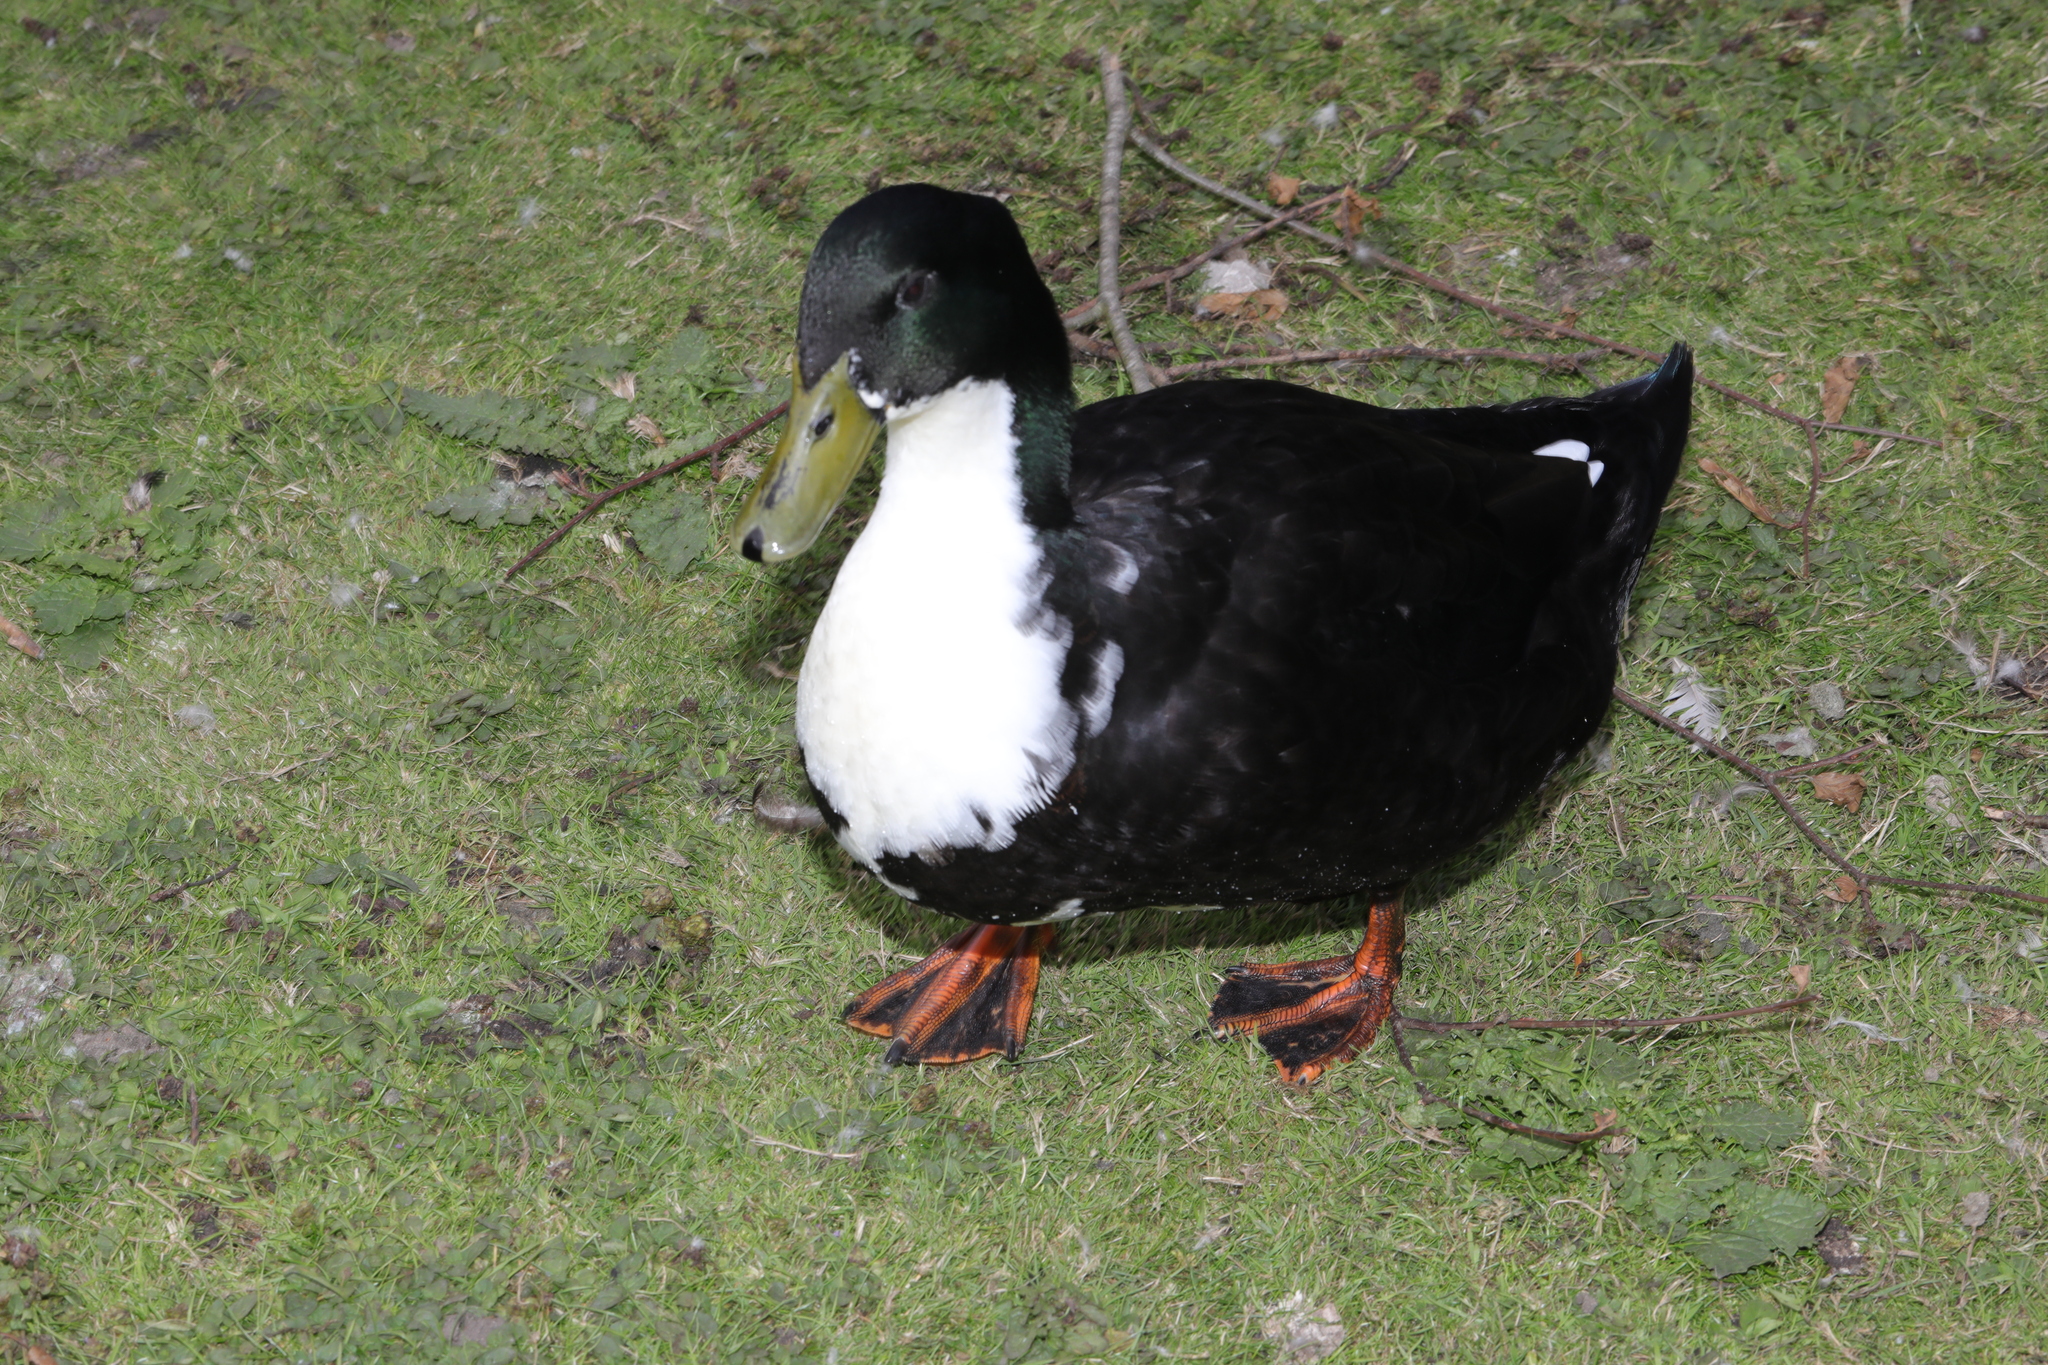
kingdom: Animalia
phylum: Chordata
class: Aves
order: Anseriformes
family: Anatidae
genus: Anas
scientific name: Anas platyrhynchos
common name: Mallard
